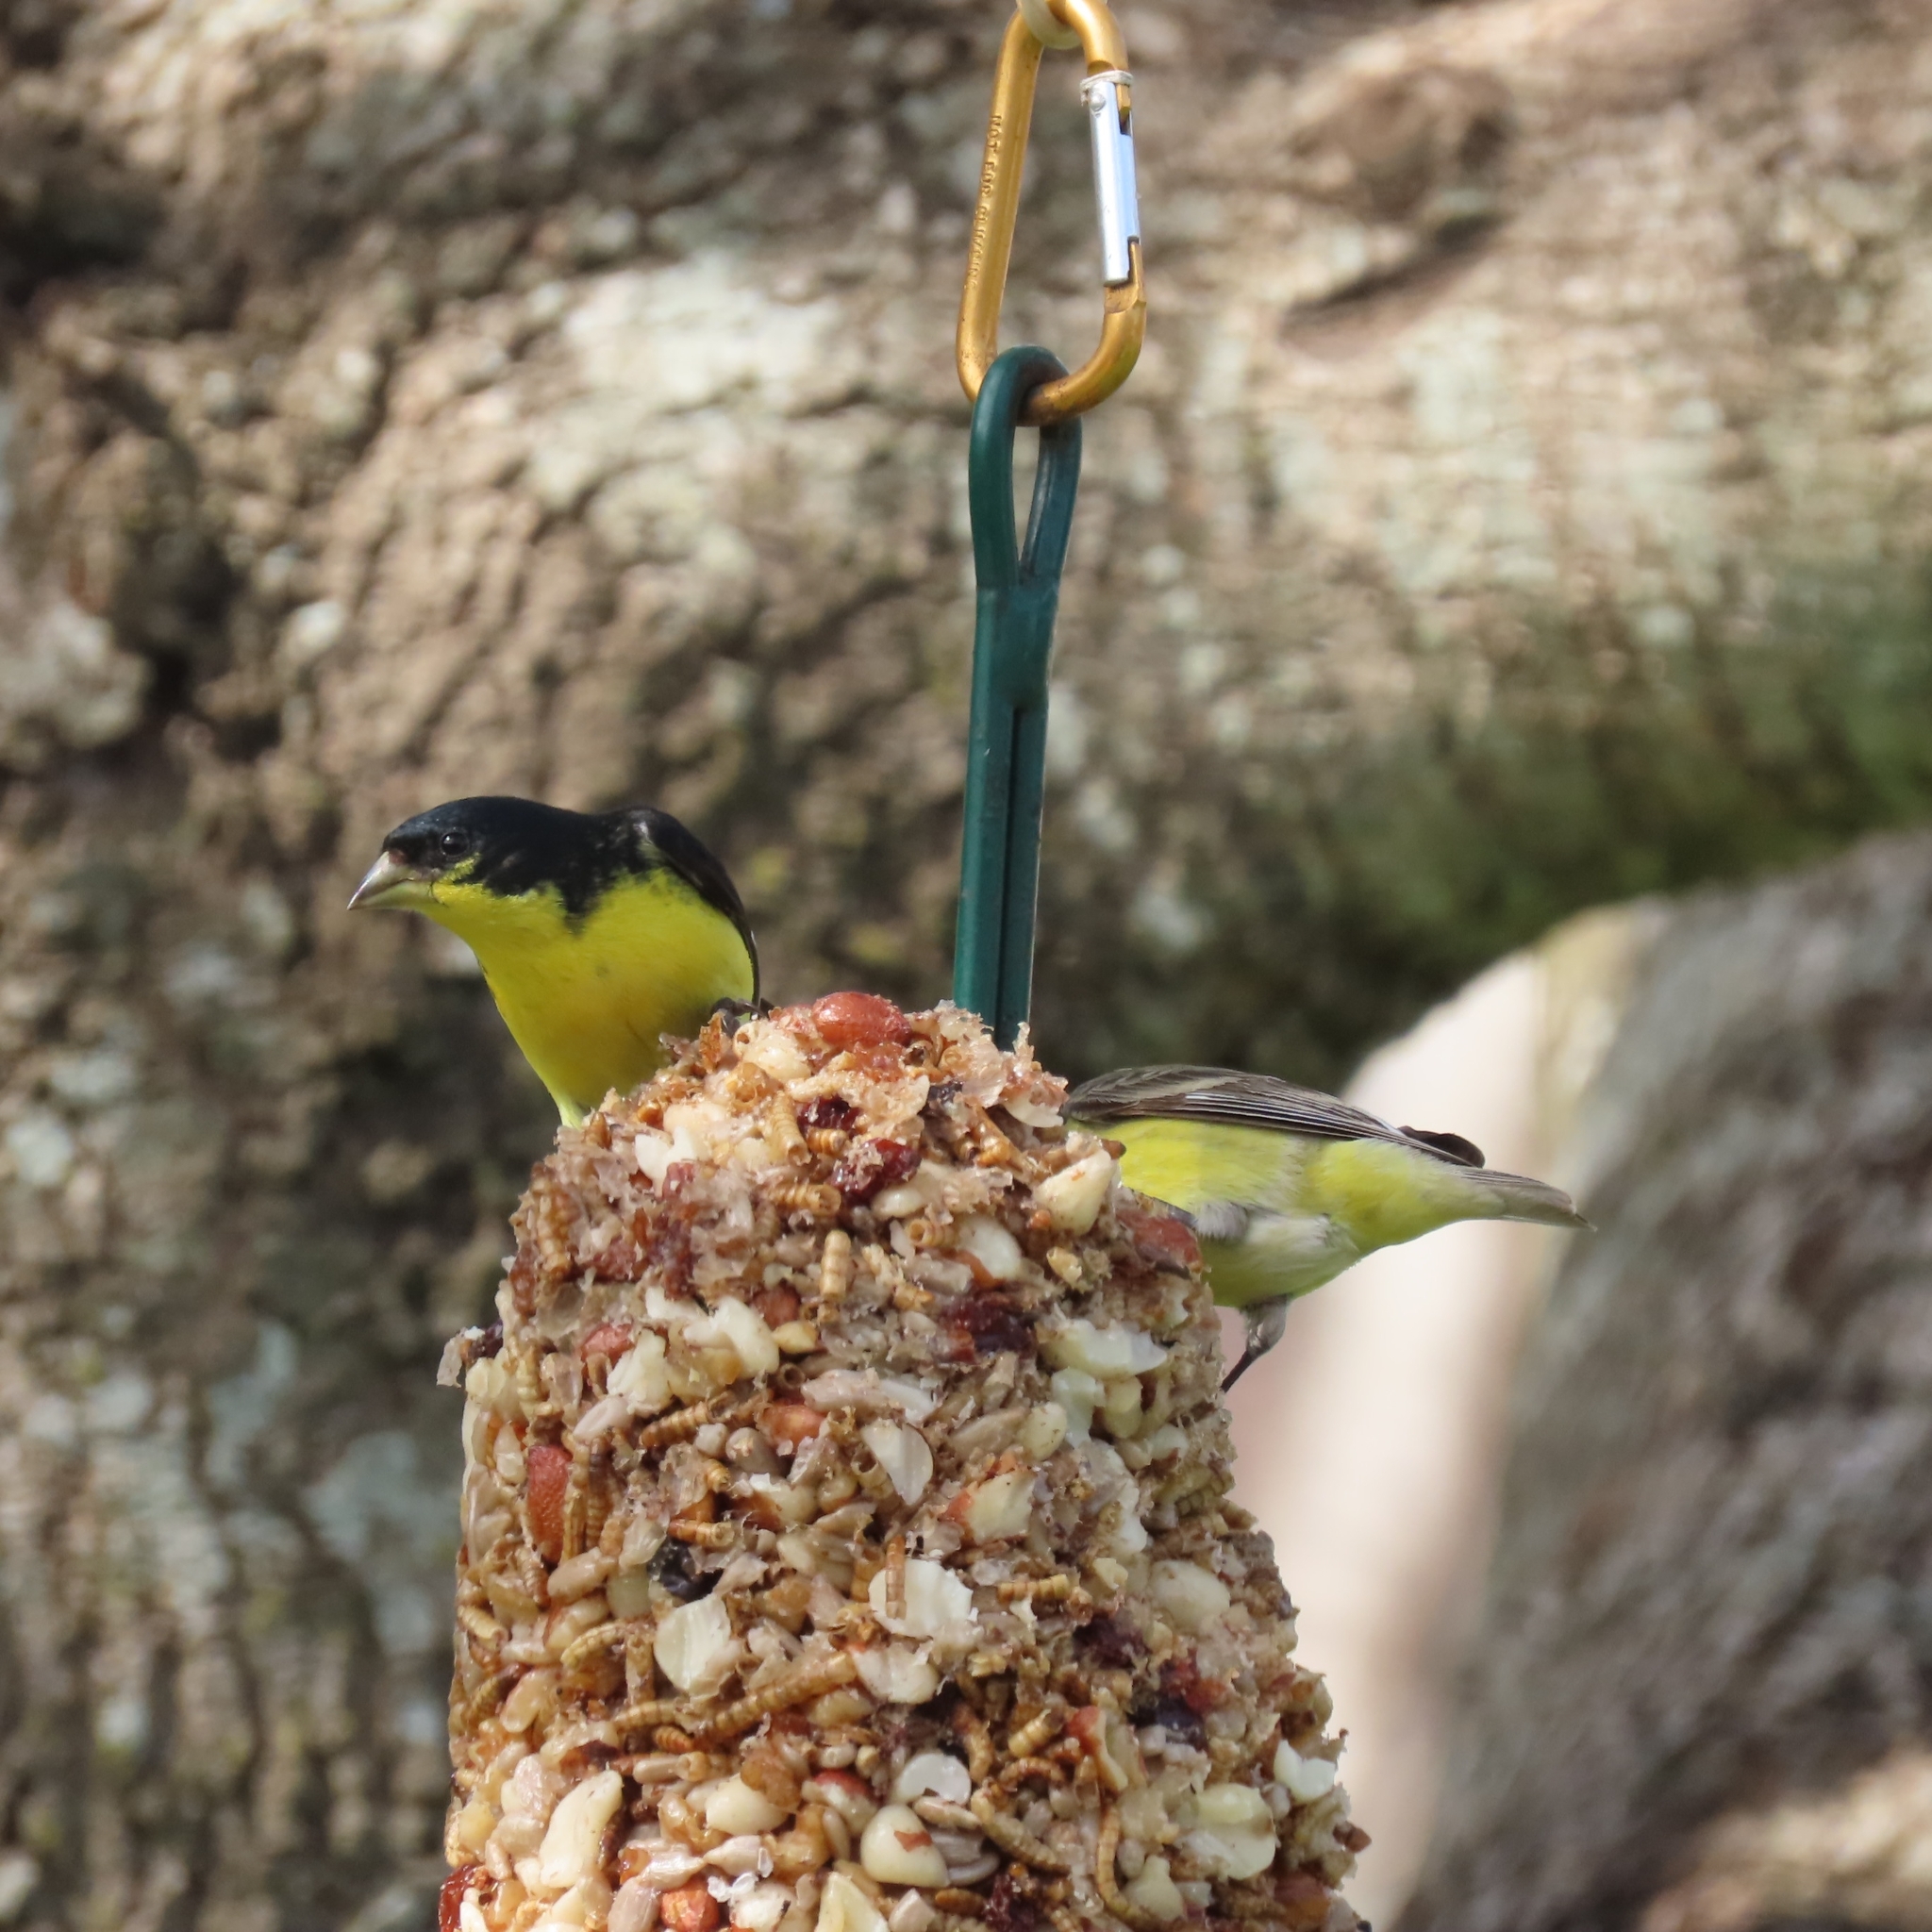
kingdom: Animalia
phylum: Chordata
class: Aves
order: Passeriformes
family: Fringillidae
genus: Spinus
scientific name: Spinus psaltria
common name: Lesser goldfinch
